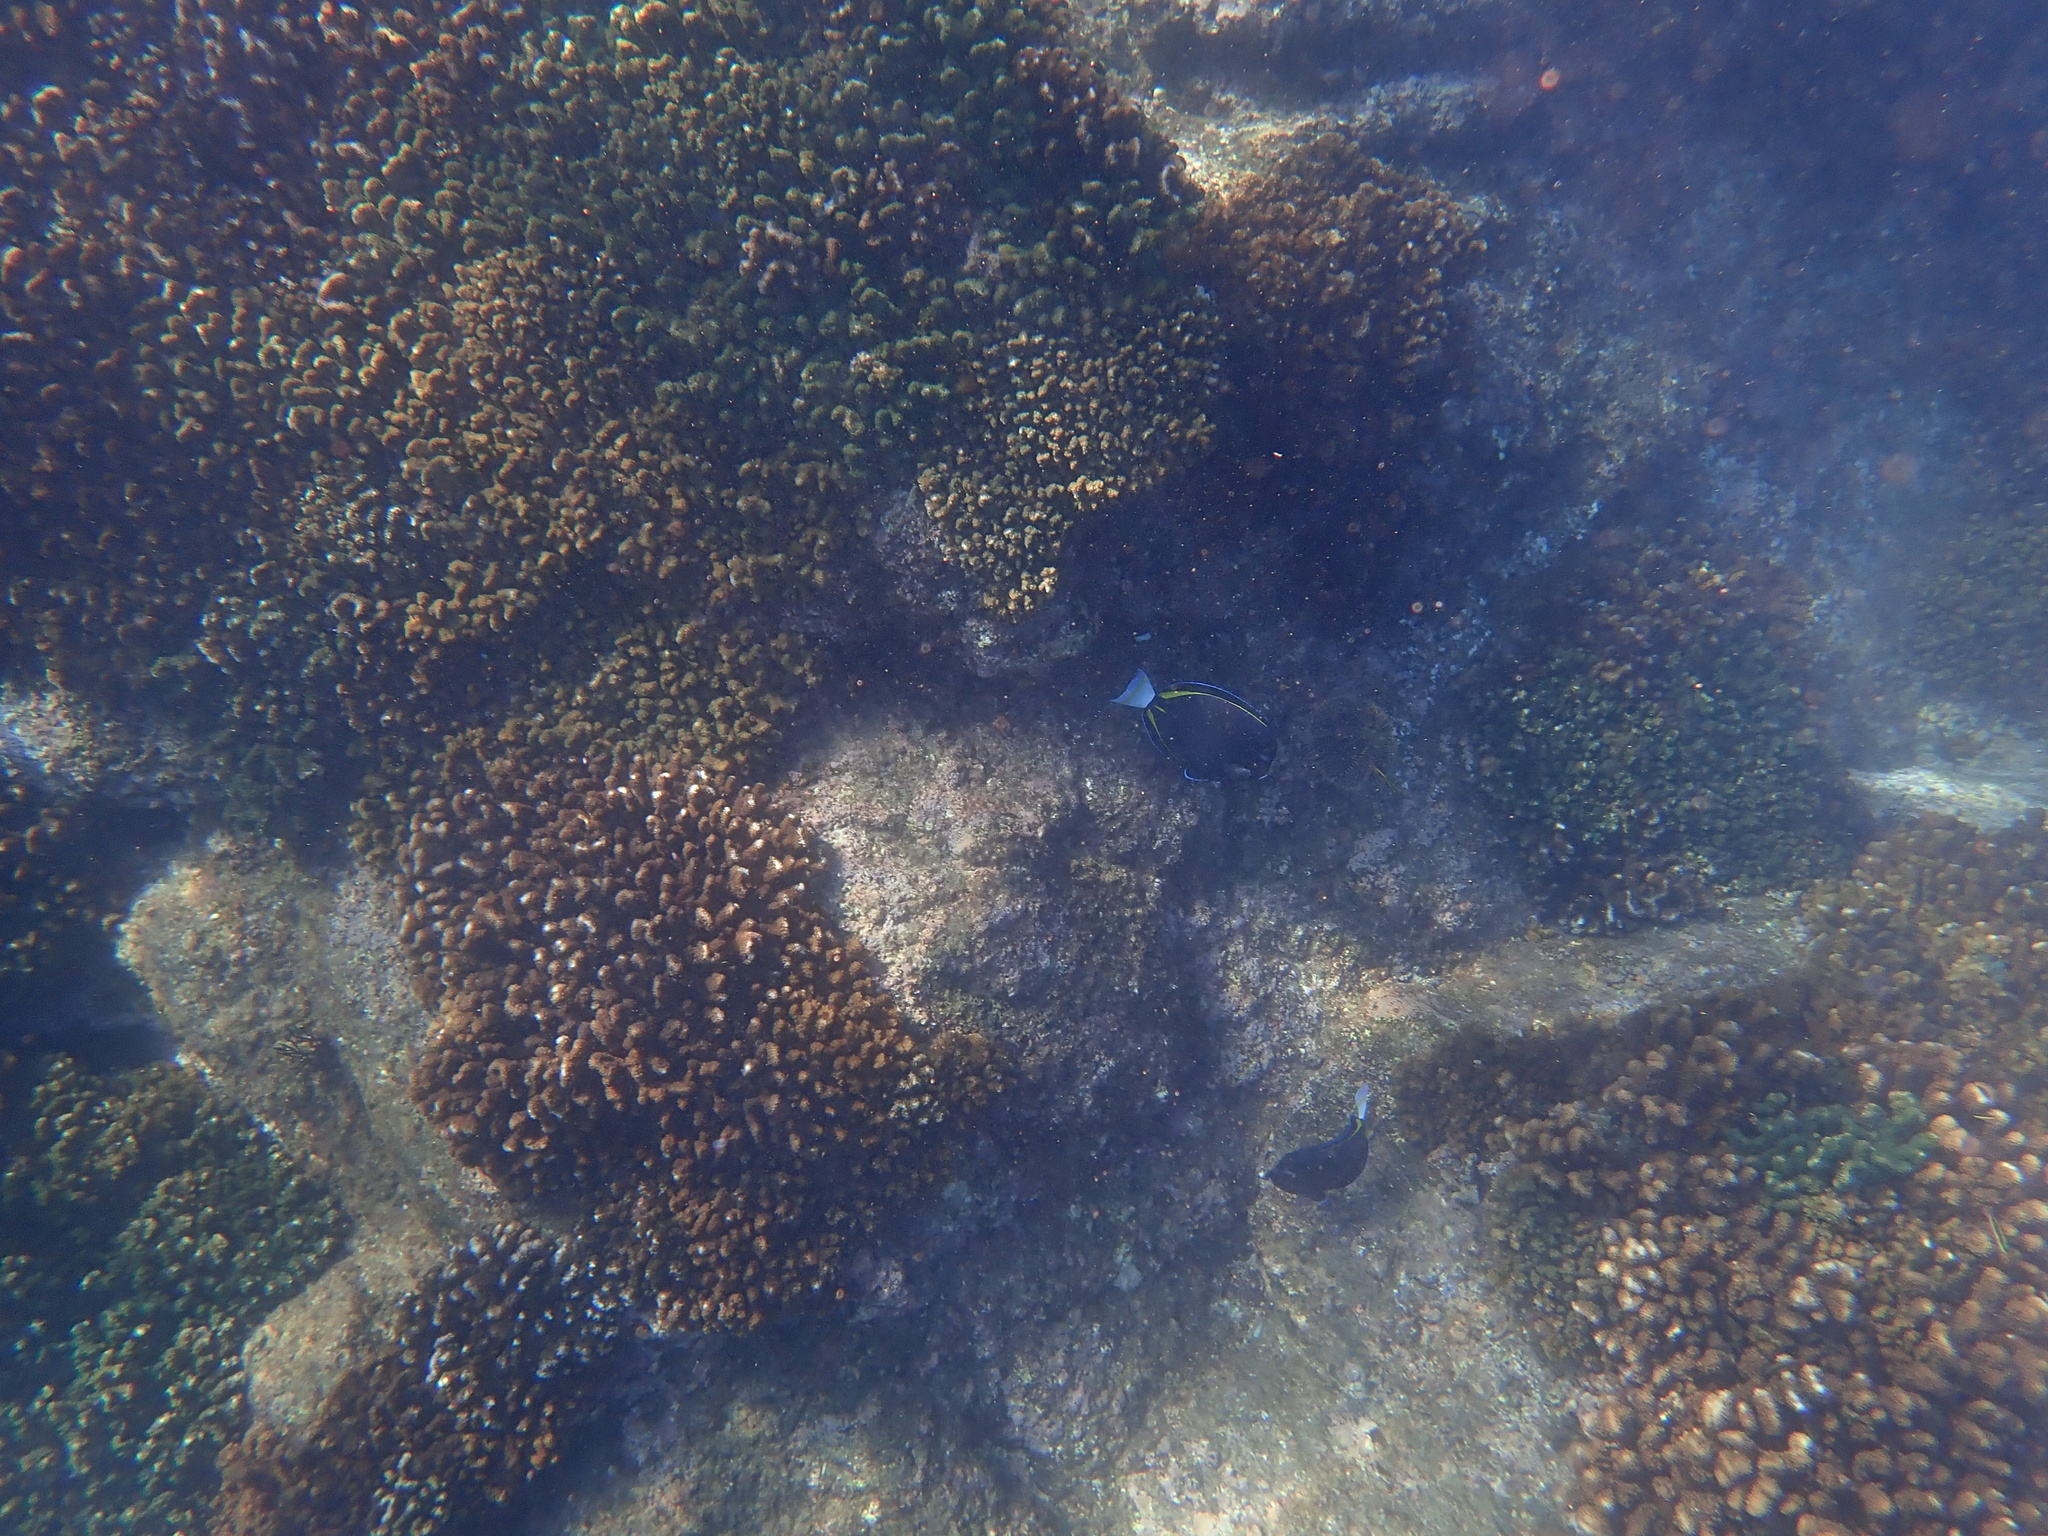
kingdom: Animalia
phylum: Chordata
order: Perciformes
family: Acanthuridae
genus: Acanthurus
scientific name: Acanthurus nigricans
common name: Whitecheek surgeonfish
